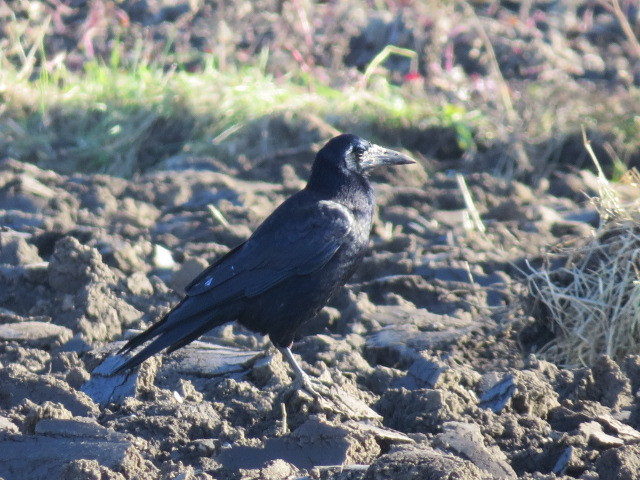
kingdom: Animalia
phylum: Chordata
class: Aves
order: Passeriformes
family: Corvidae
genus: Corvus
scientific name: Corvus frugilegus
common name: Rook
